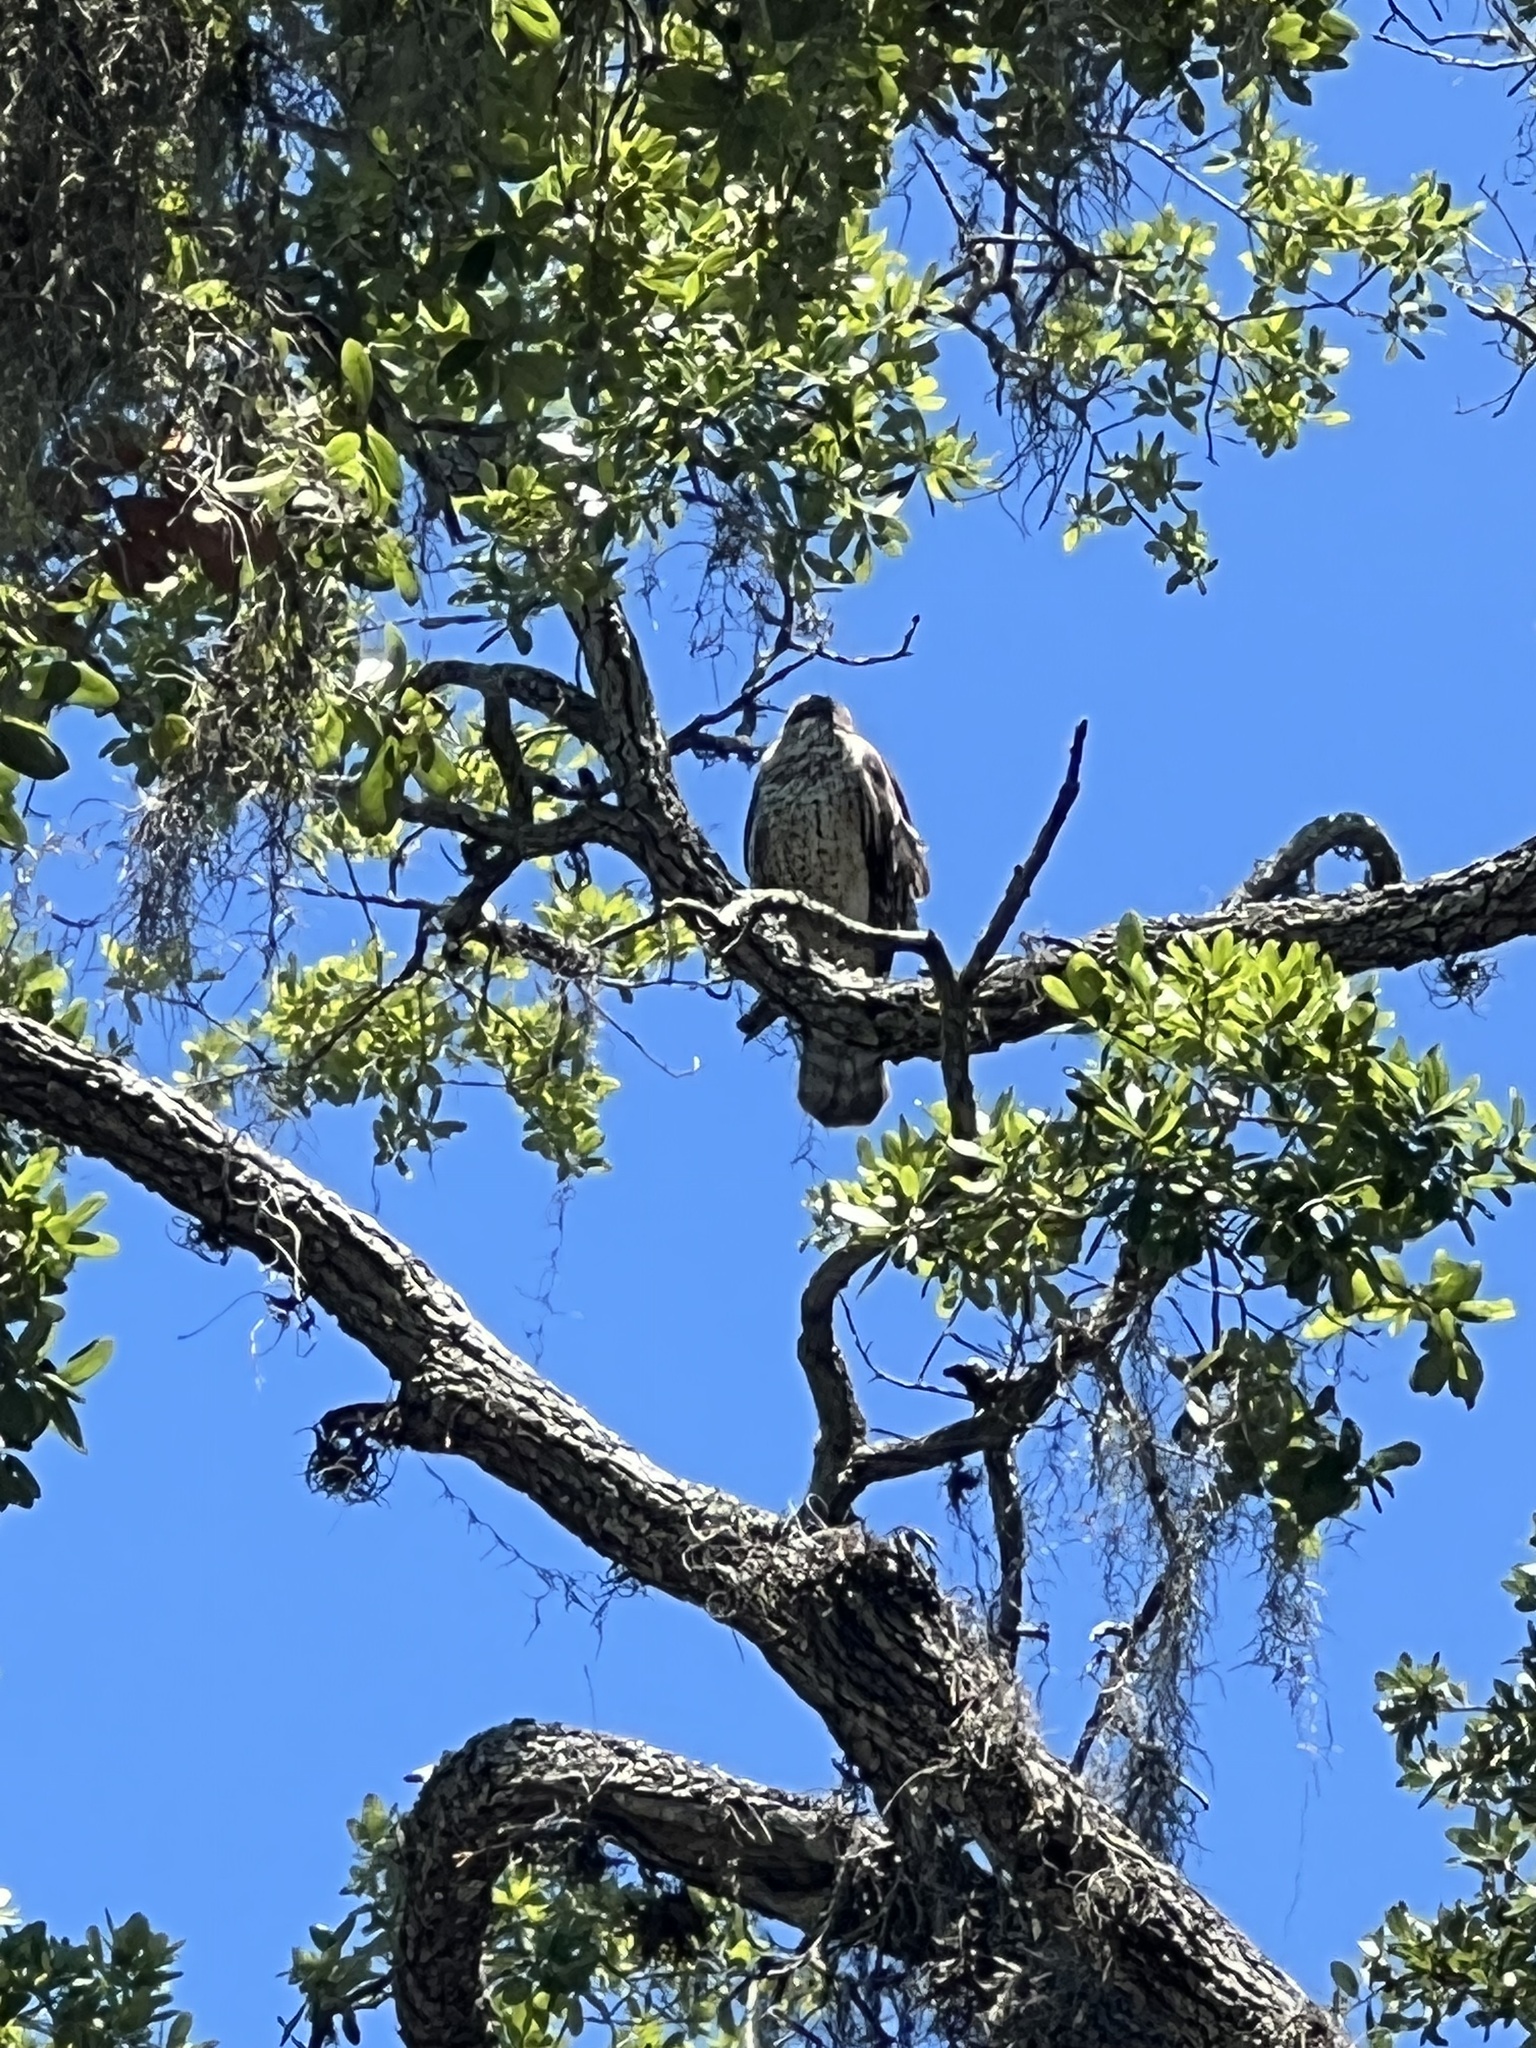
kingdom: Animalia
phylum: Chordata
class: Aves
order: Accipitriformes
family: Accipitridae
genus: Buteo
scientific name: Buteo lineatus
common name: Red-shouldered hawk
